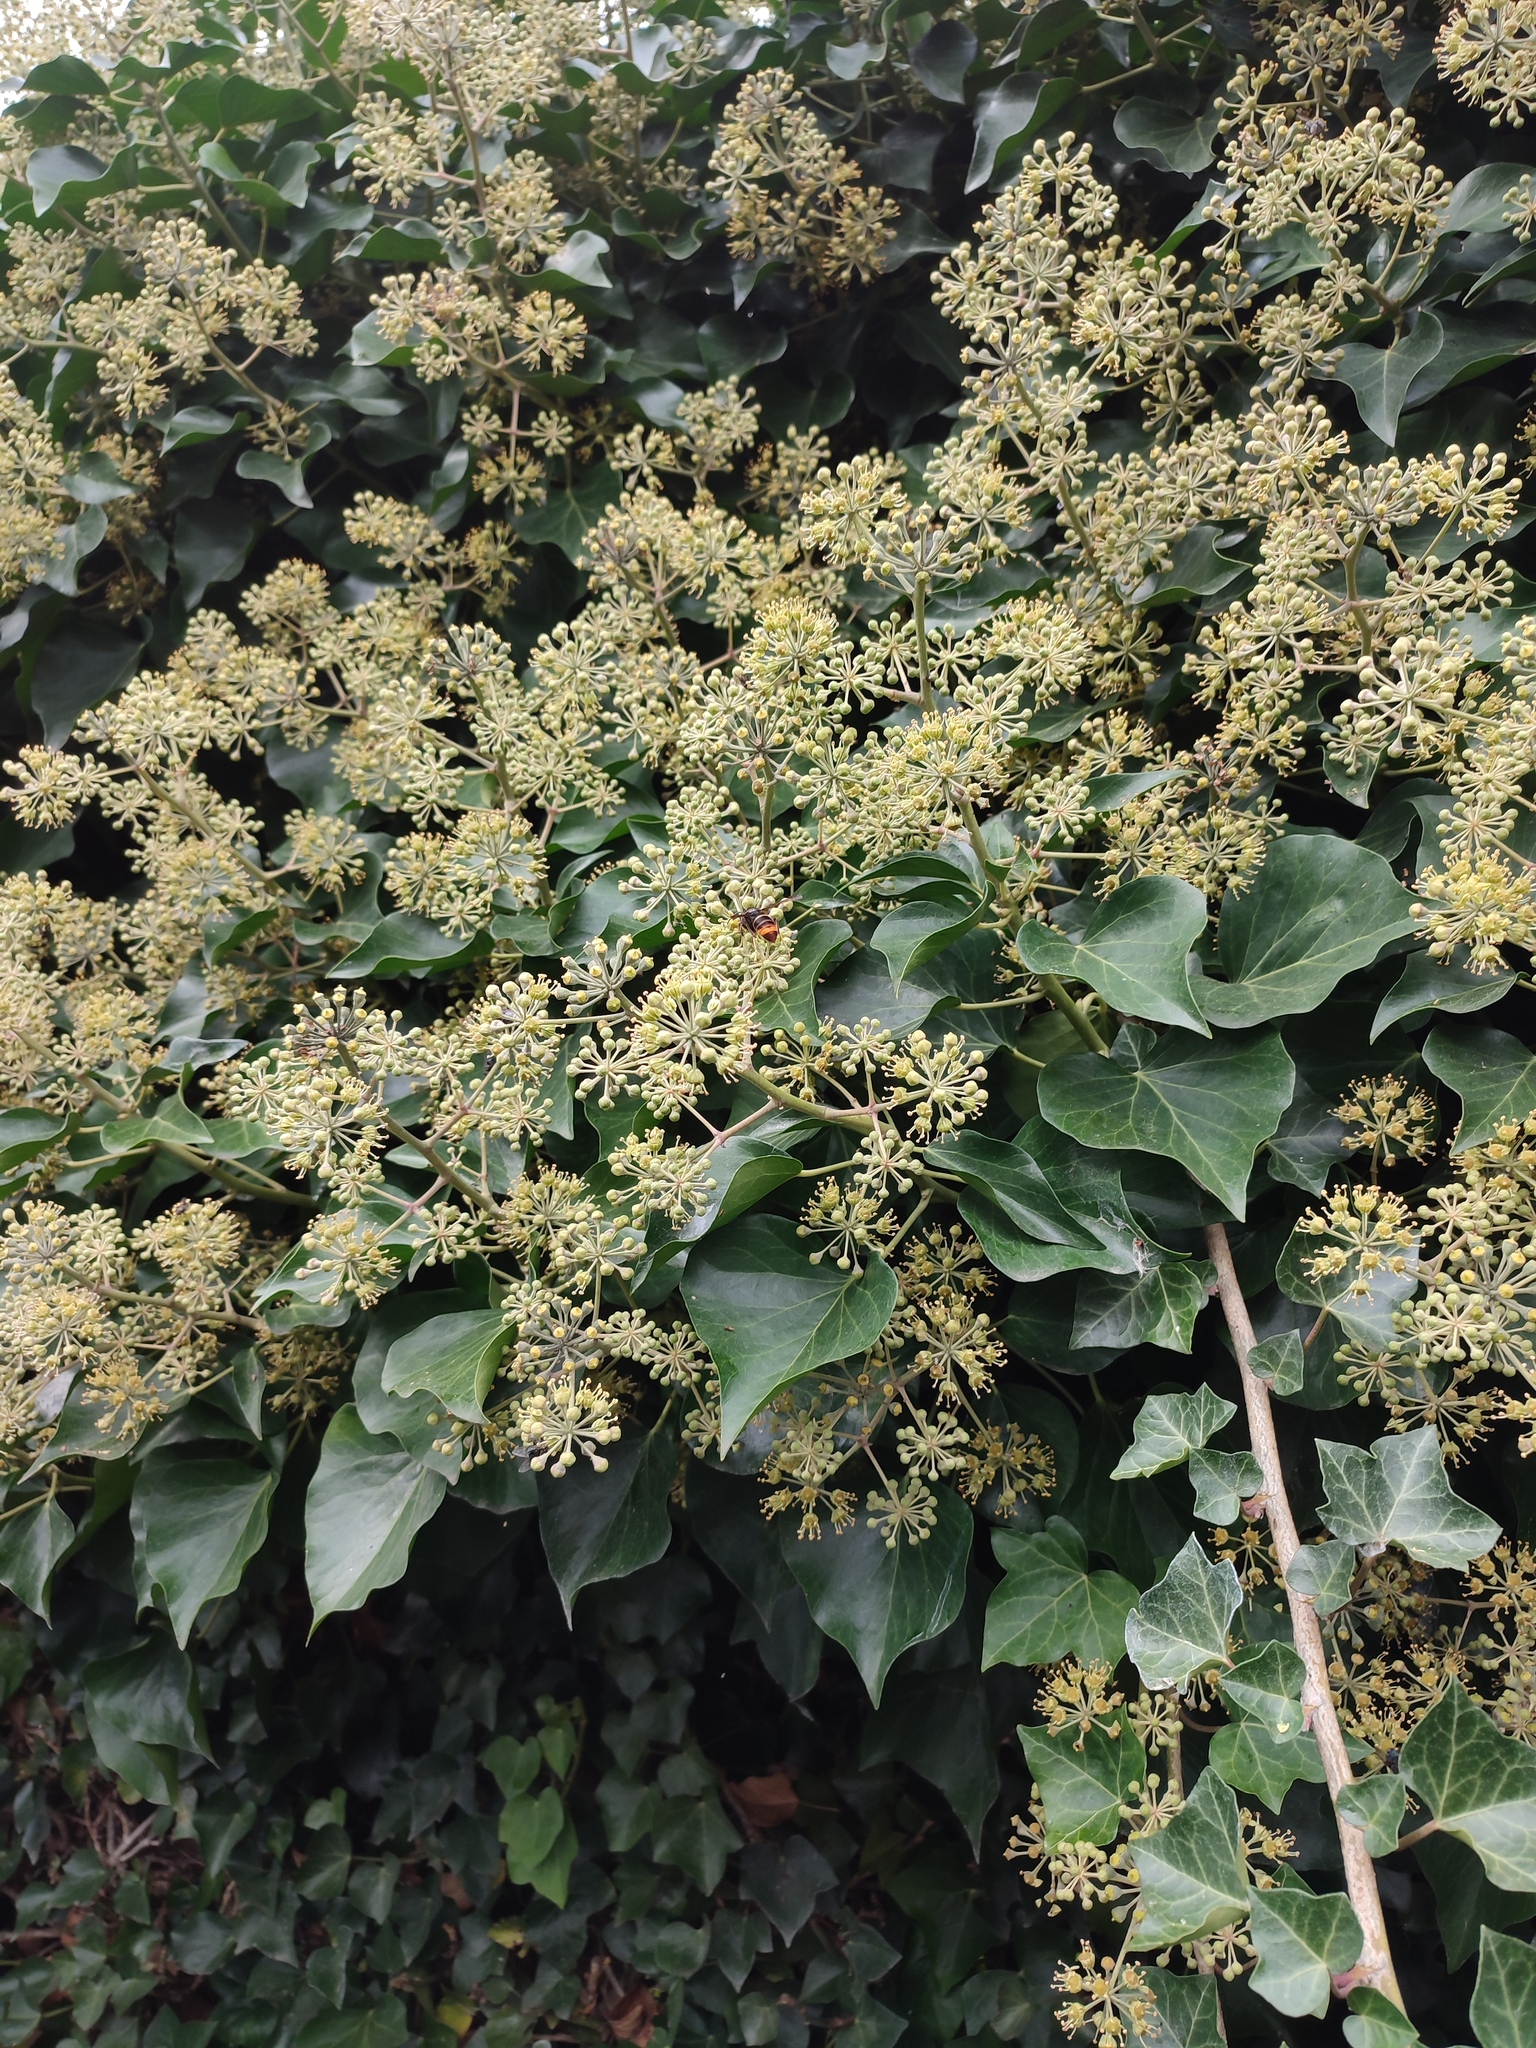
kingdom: Animalia
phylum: Arthropoda
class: Insecta
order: Hymenoptera
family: Vespidae
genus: Vespa
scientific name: Vespa velutina
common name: Asian hornet
